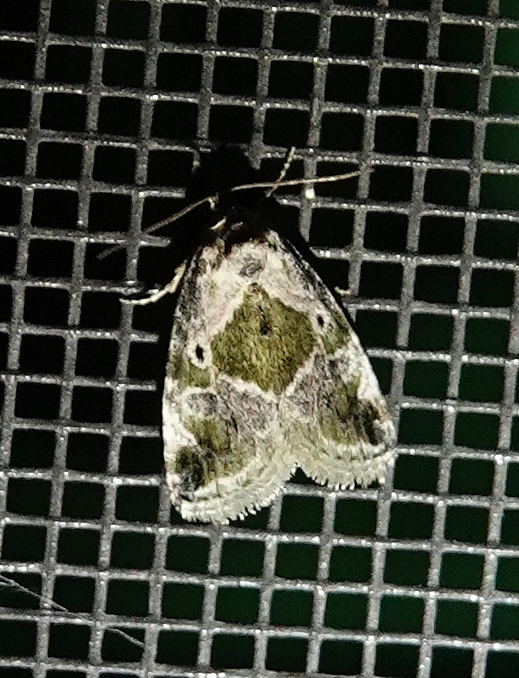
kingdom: Animalia
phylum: Arthropoda
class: Insecta
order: Lepidoptera
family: Noctuidae
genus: Maliattha
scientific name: Maliattha synochitis
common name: Black-dotted glyph
